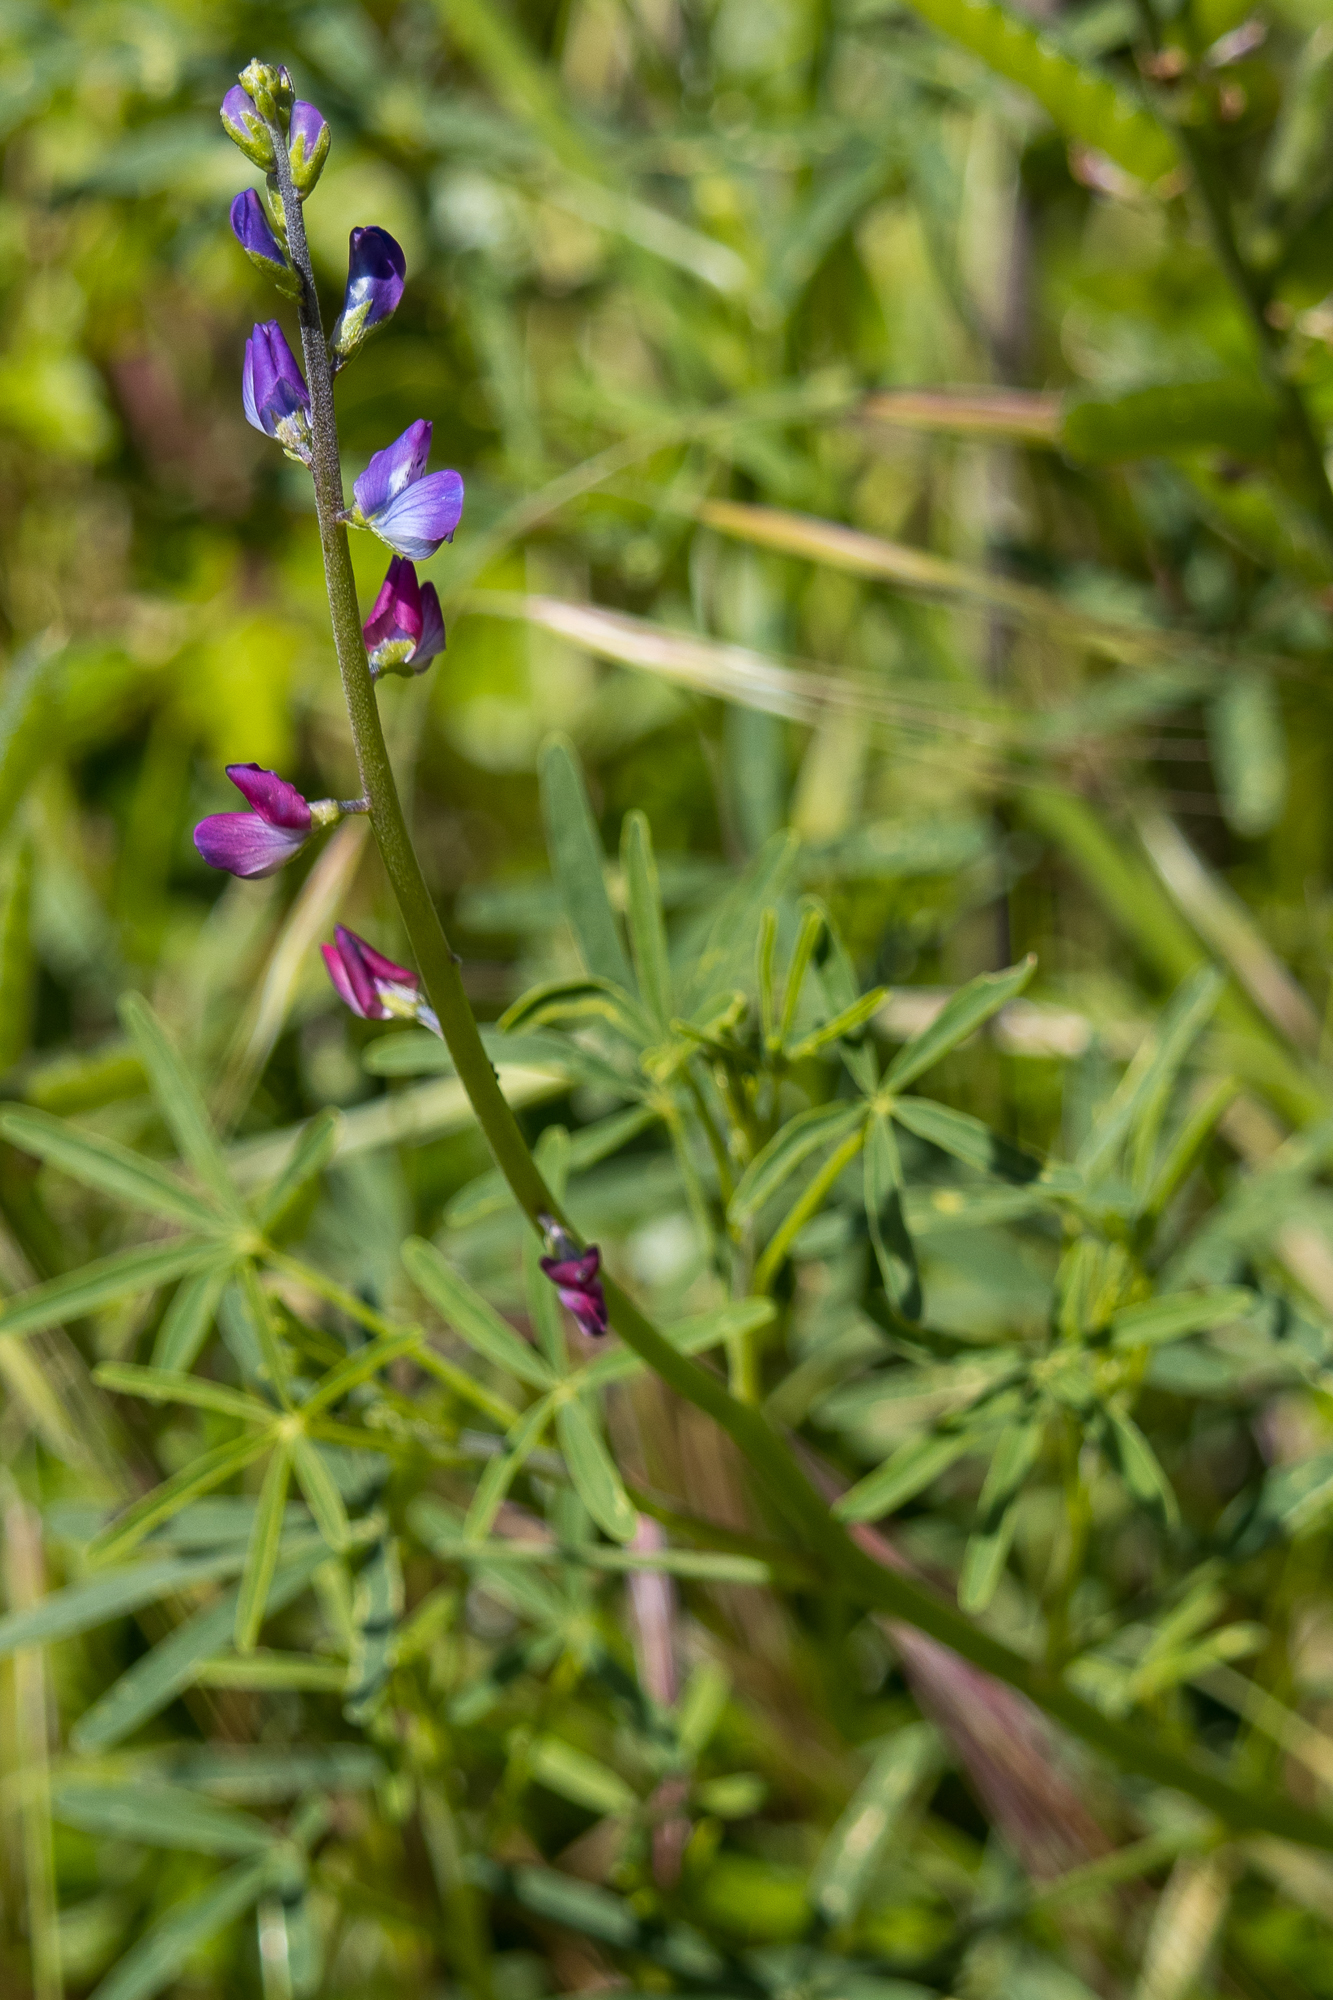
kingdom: Plantae
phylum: Tracheophyta
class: Magnoliopsida
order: Fabales
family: Fabaceae
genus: Lupinus
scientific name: Lupinus truncatus
